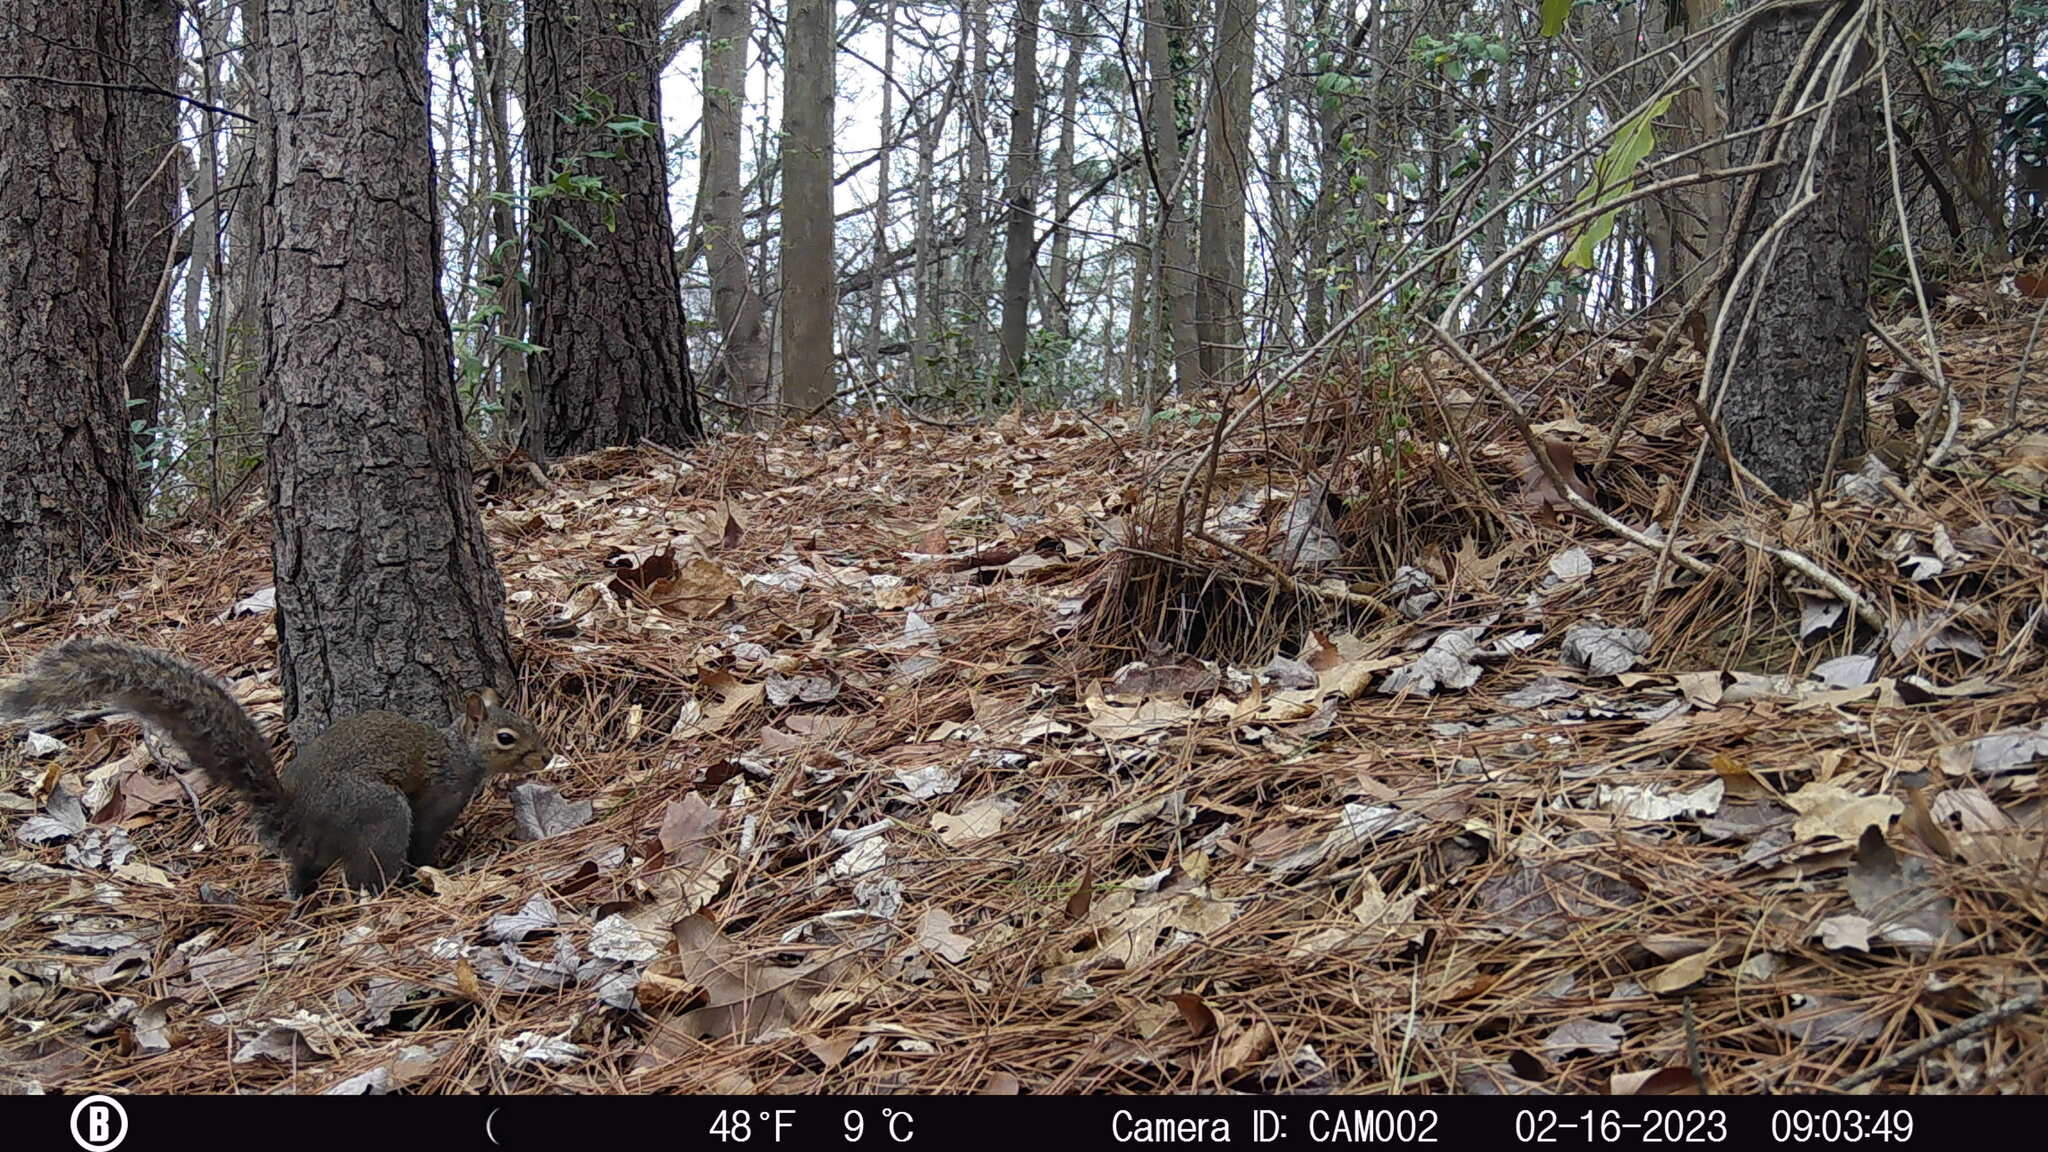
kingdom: Animalia
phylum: Chordata
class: Mammalia
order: Rodentia
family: Sciuridae
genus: Sciurus
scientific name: Sciurus carolinensis
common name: Eastern gray squirrel
